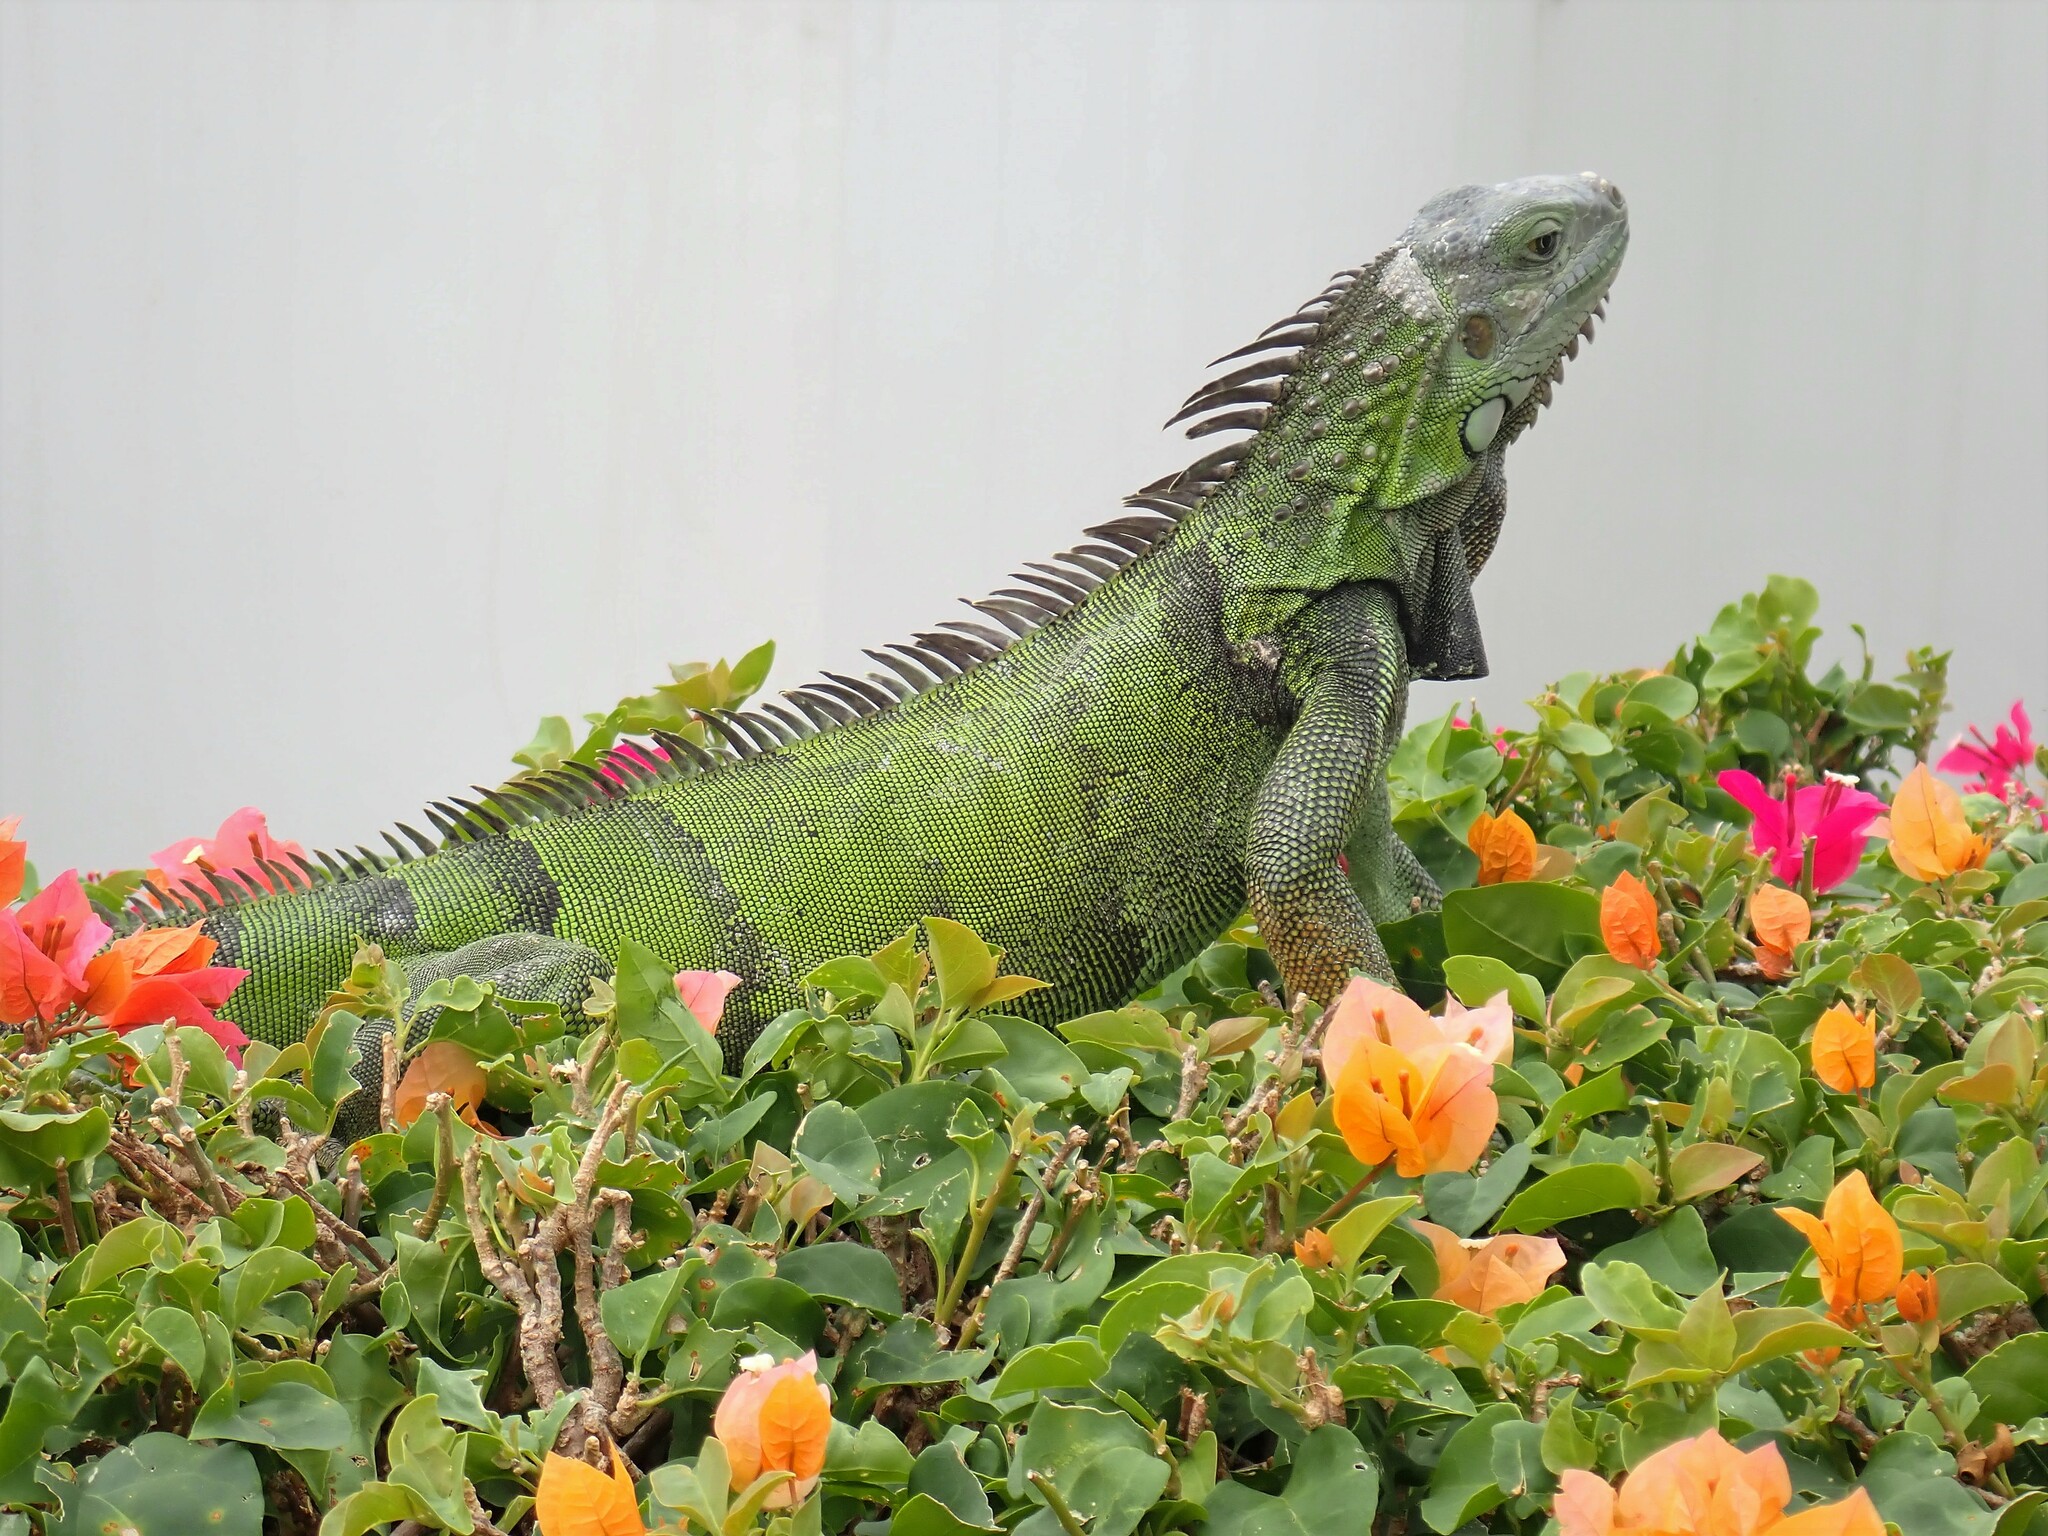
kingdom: Animalia
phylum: Chordata
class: Squamata
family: Iguanidae
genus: Iguana
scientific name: Iguana iguana
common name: Green iguana
